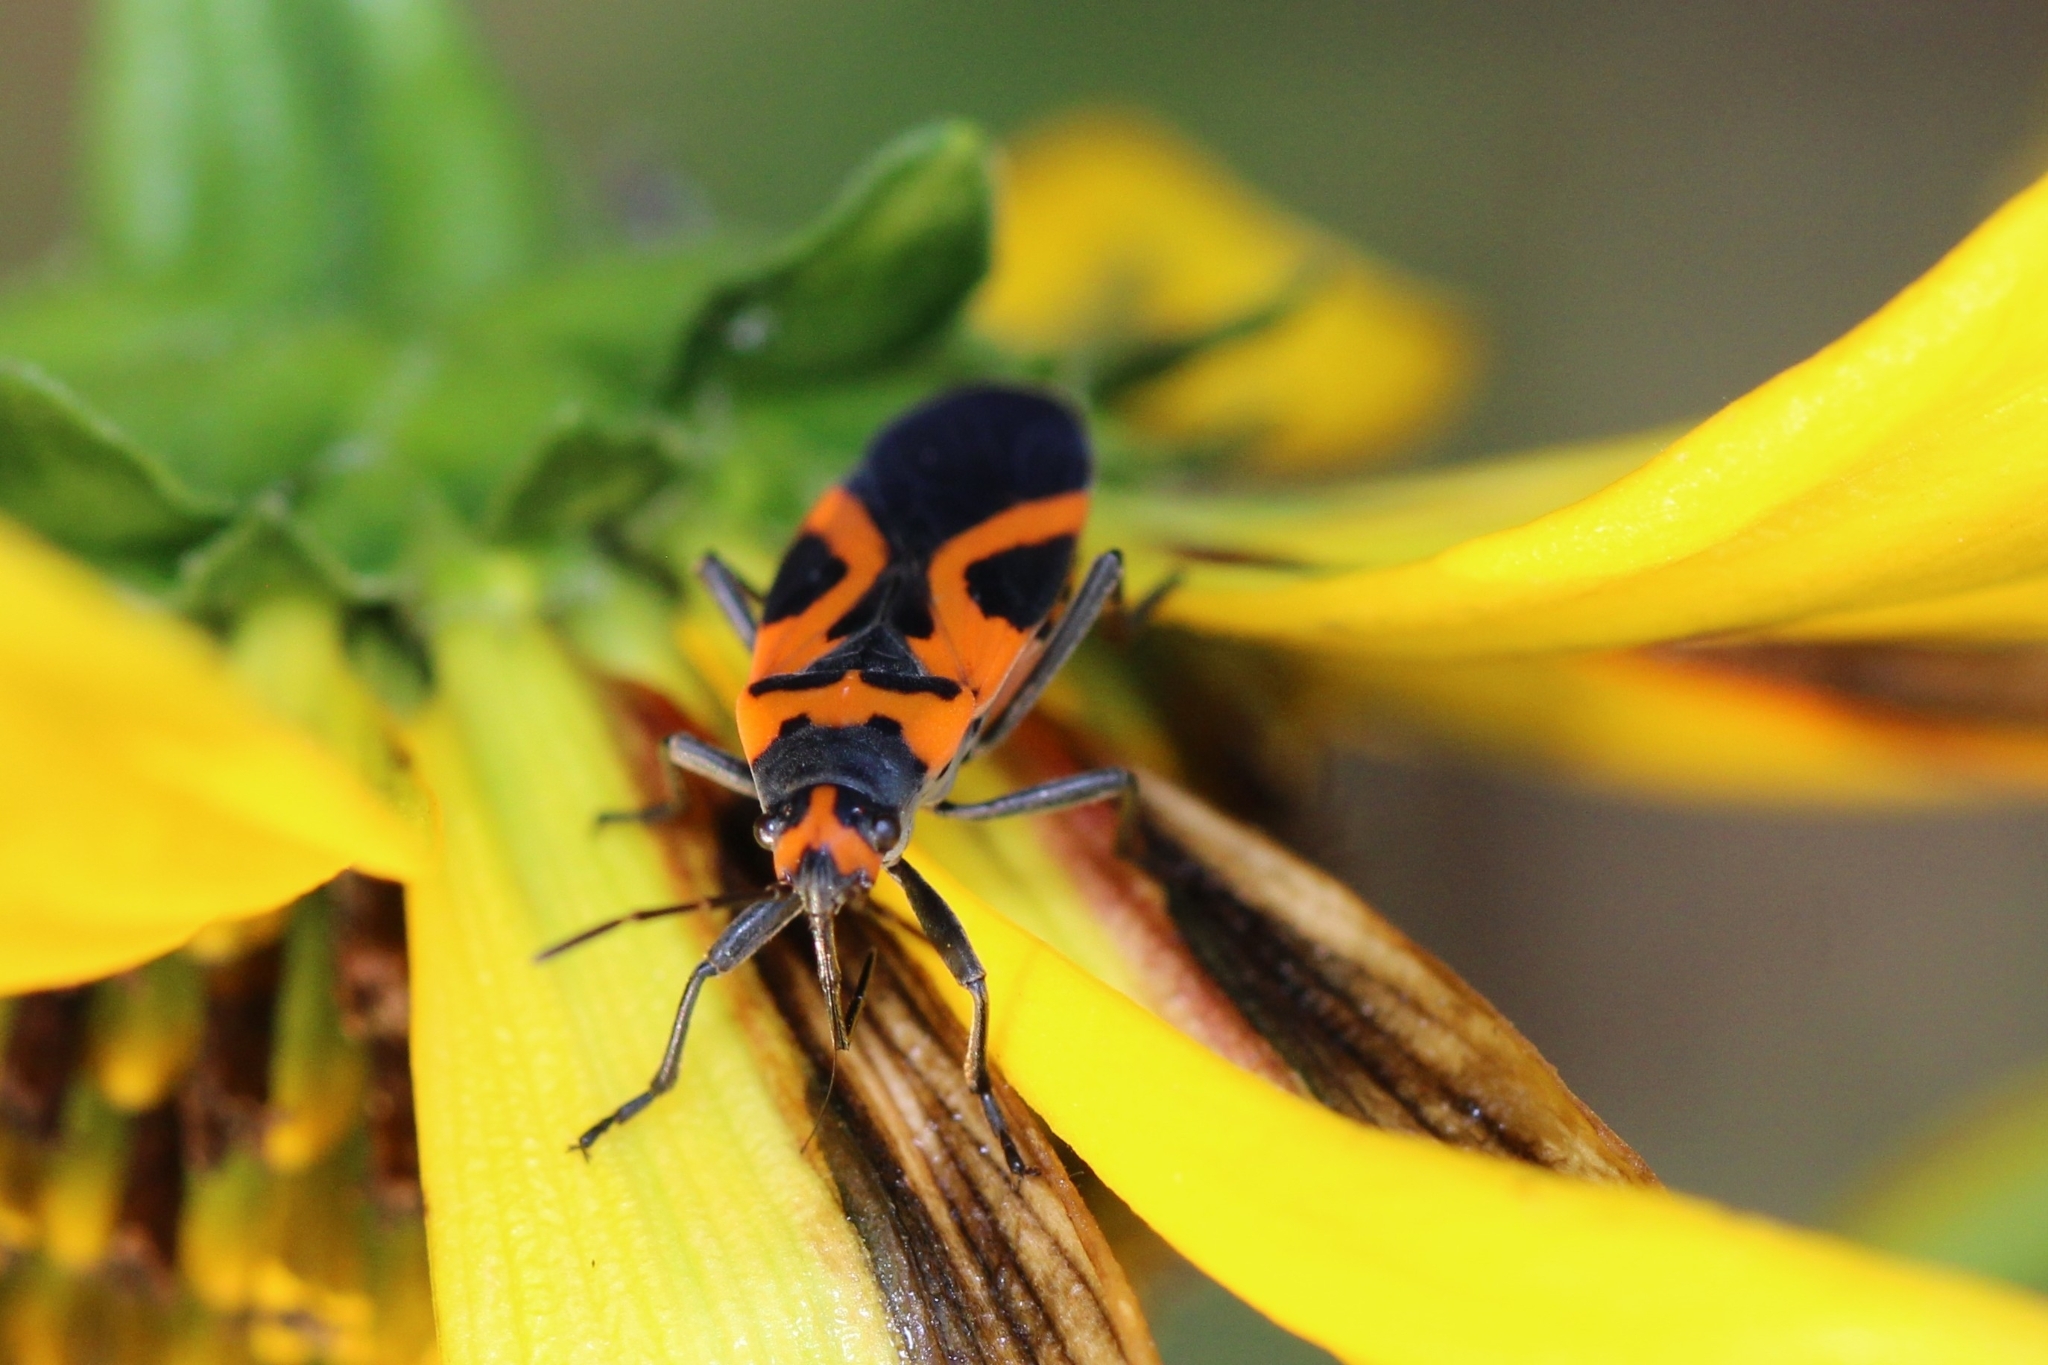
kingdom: Animalia
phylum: Arthropoda
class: Insecta
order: Hemiptera
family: Lygaeidae
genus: Lygaeus
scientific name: Lygaeus turcicus
